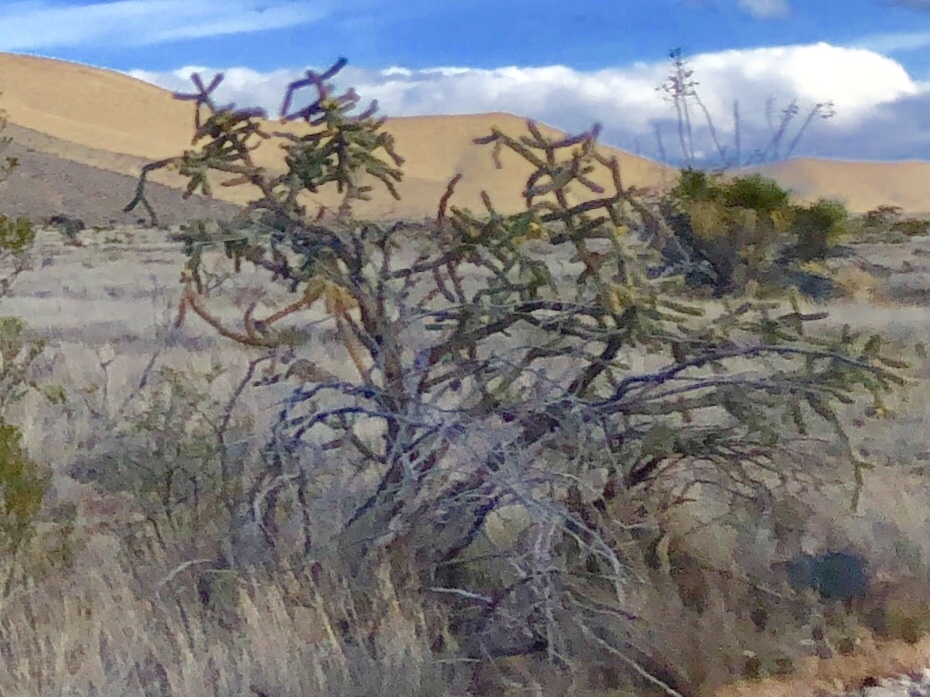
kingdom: Plantae
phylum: Tracheophyta
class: Magnoliopsida
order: Caryophyllales
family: Cactaceae
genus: Cylindropuntia
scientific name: Cylindropuntia imbricata
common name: Candelabrum cactus
